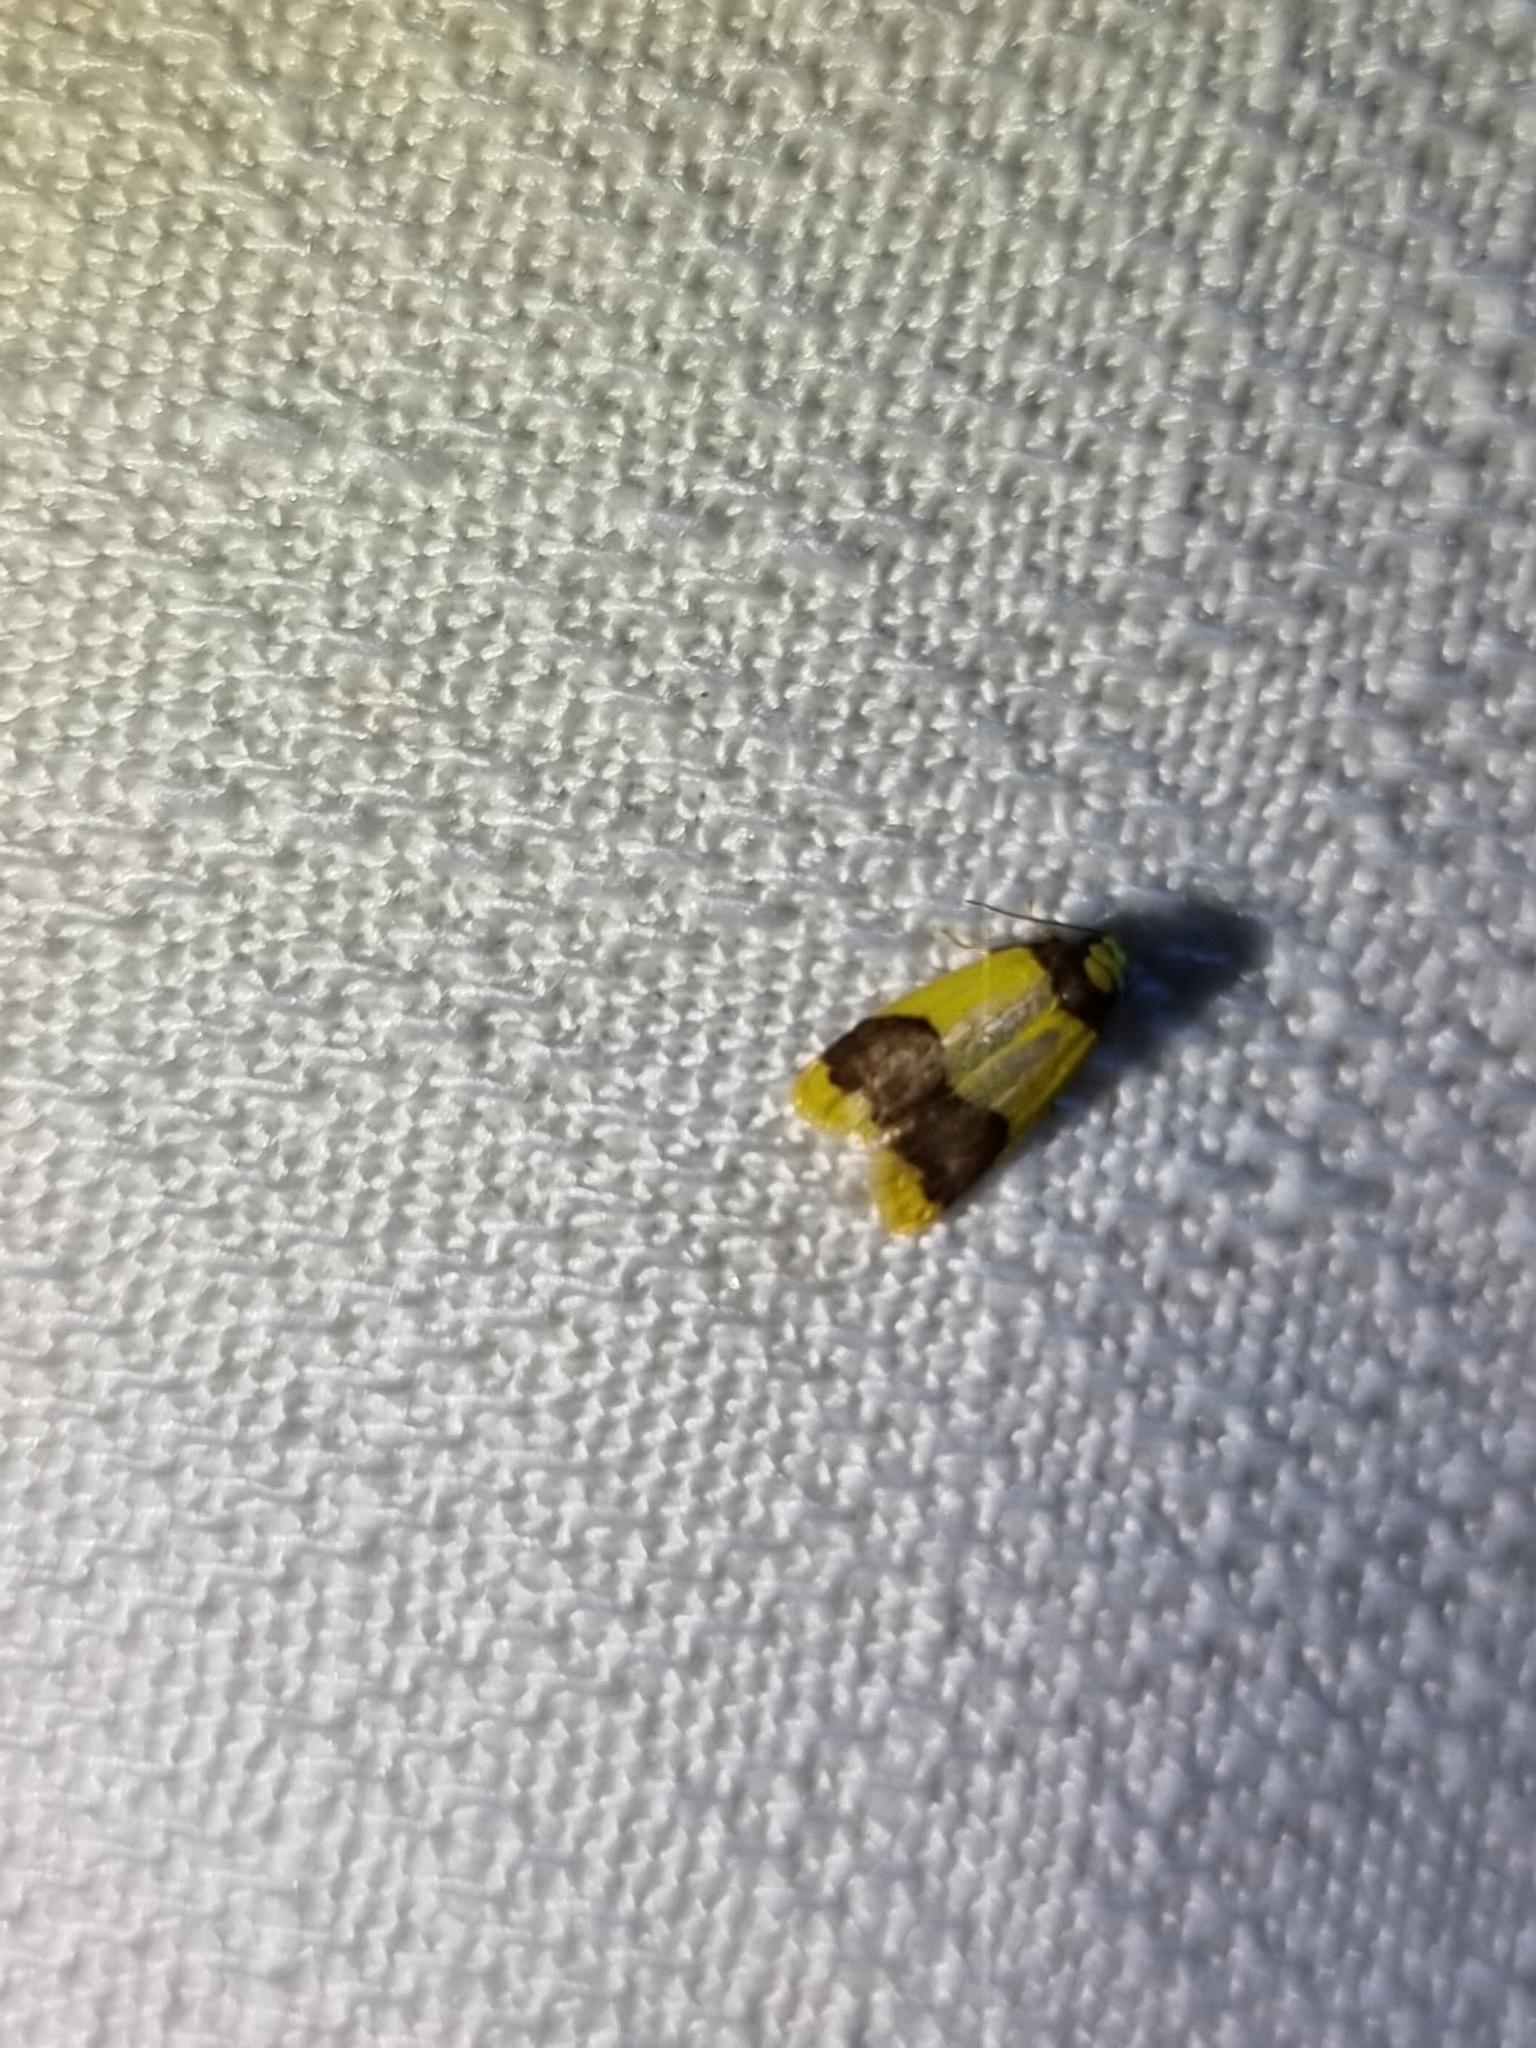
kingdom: Animalia
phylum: Arthropoda
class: Insecta
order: Lepidoptera
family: Erebidae
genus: Heterallactis
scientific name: Heterallactis microchrysa
